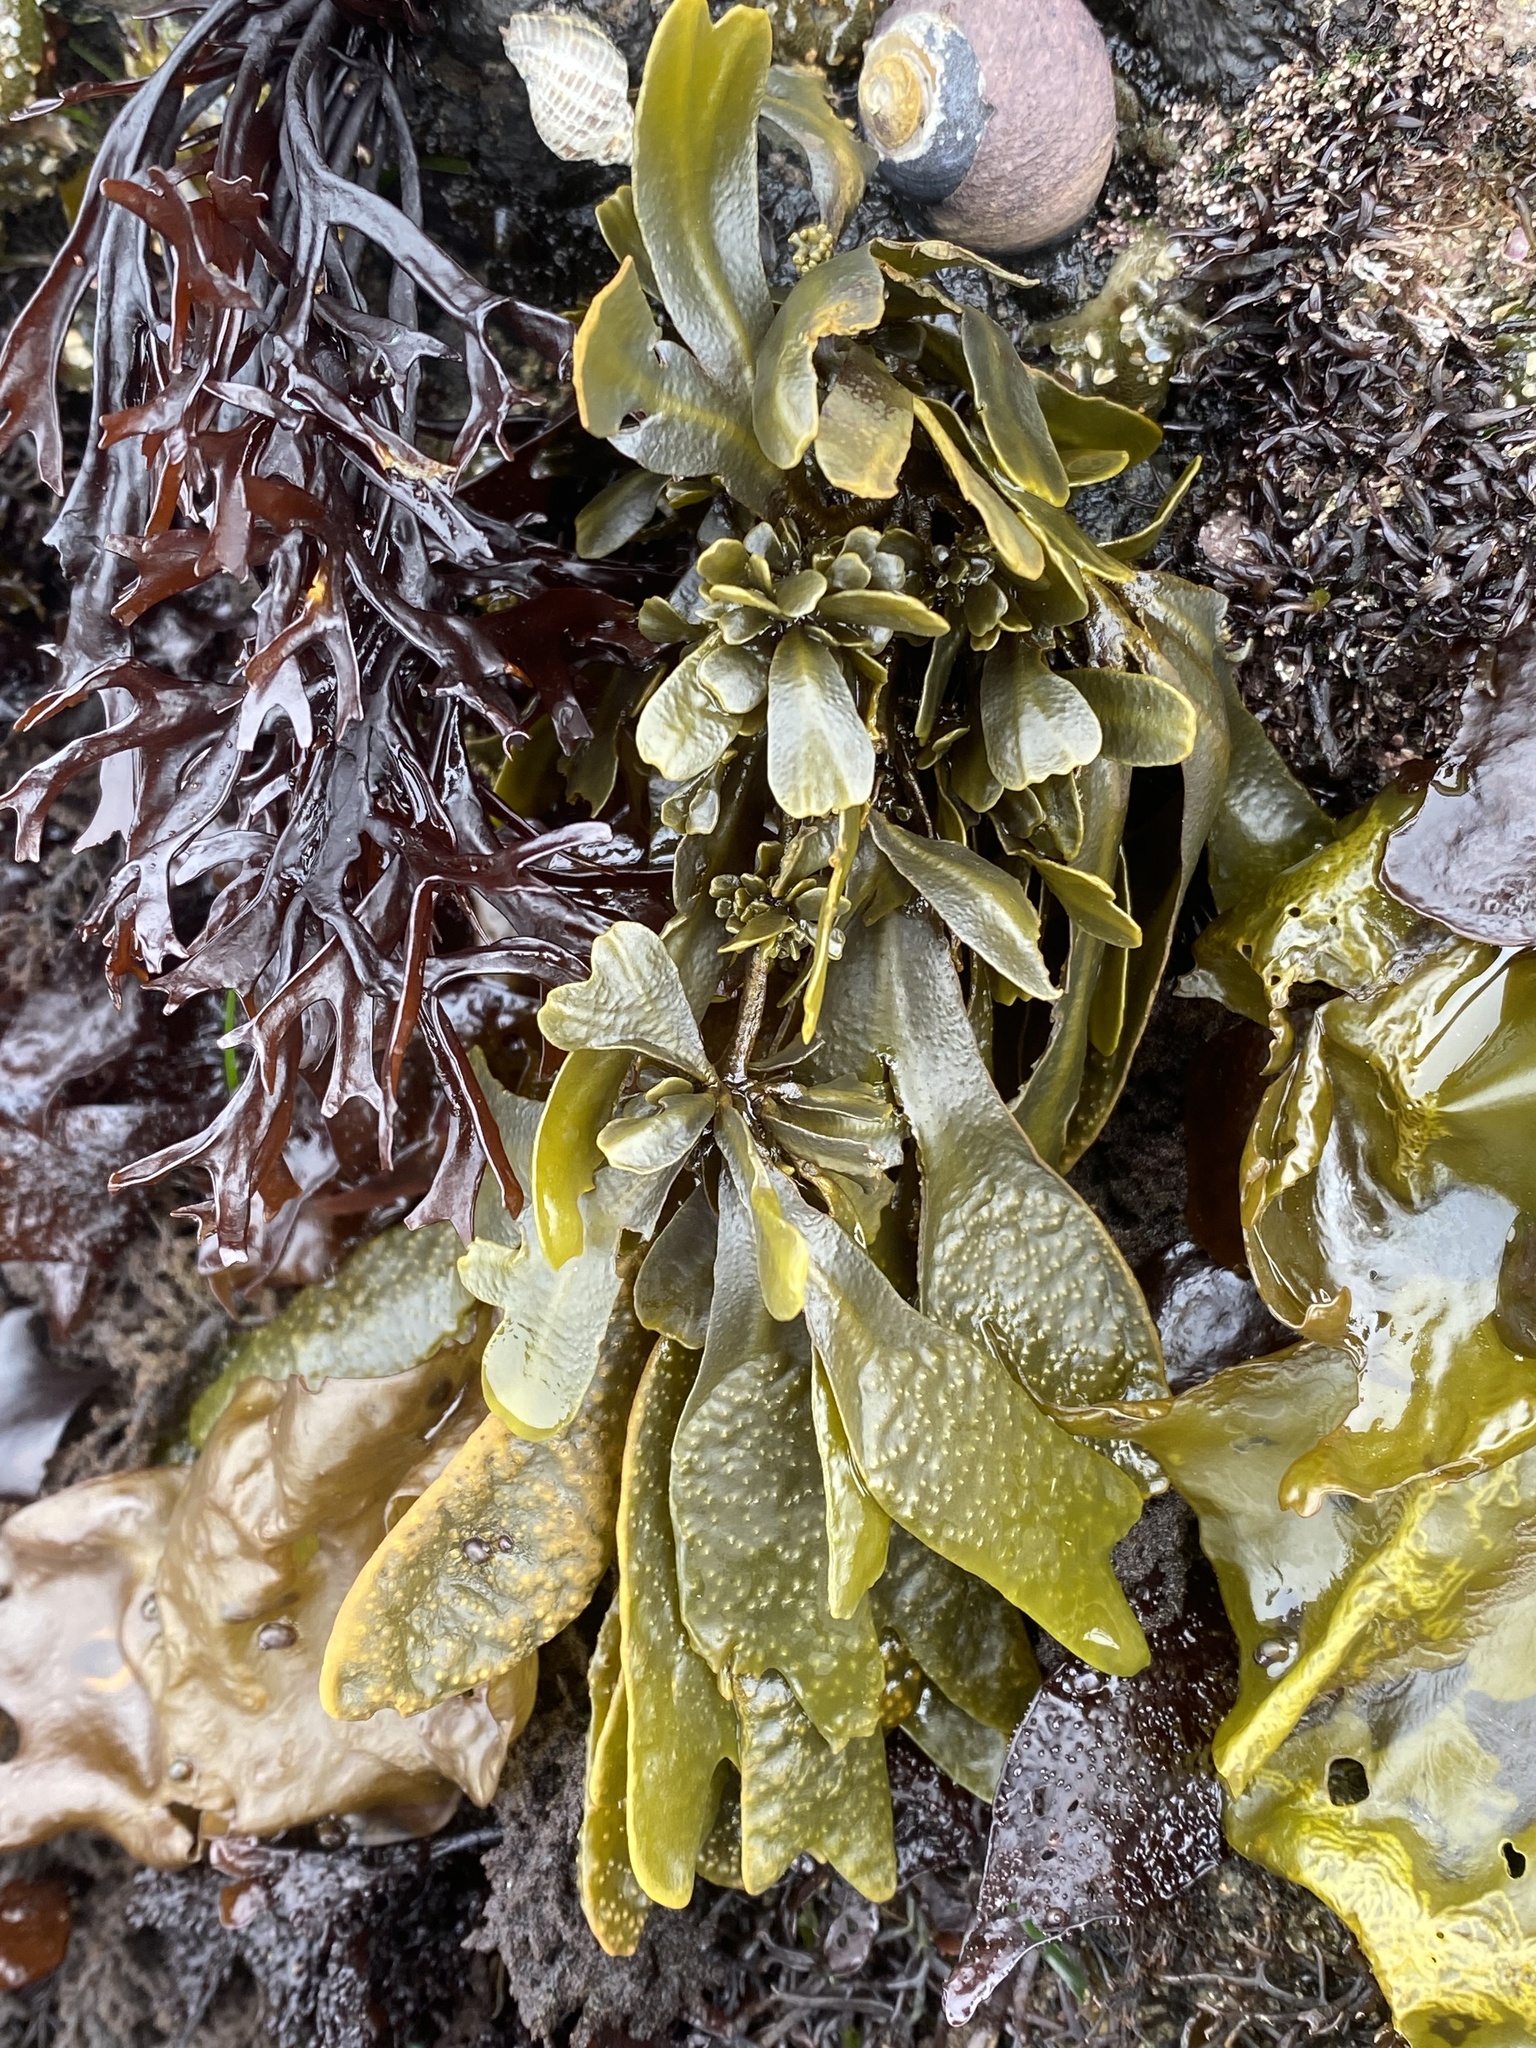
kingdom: Chromista
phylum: Ochrophyta
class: Phaeophyceae
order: Fucales
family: Fucaceae
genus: Fucus
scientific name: Fucus distichus
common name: Rockweed
